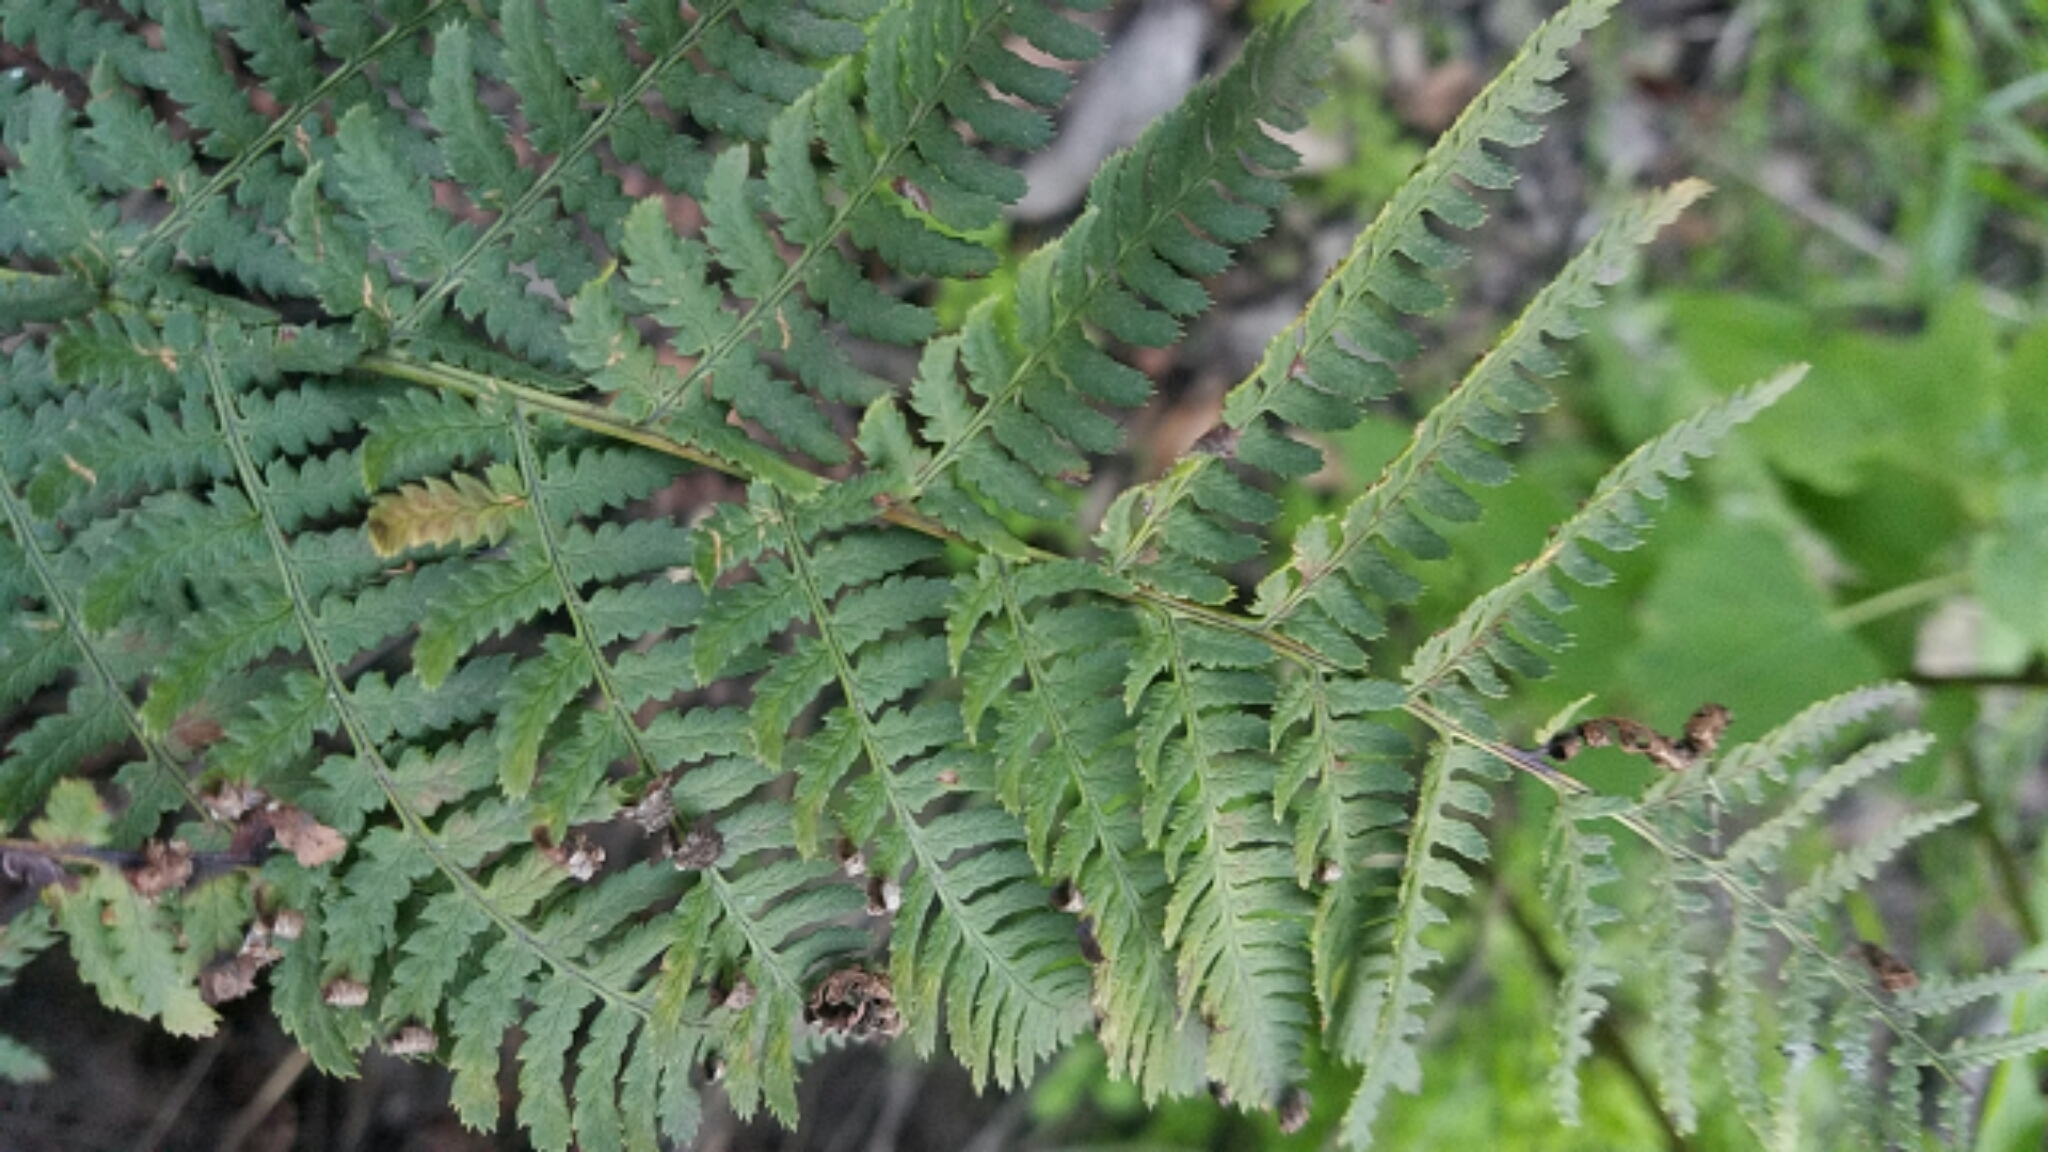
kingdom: Plantae
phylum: Tracheophyta
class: Polypodiopsida
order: Polypodiales
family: Dryopteridaceae
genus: Dryopteris
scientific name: Dryopteris arguta
